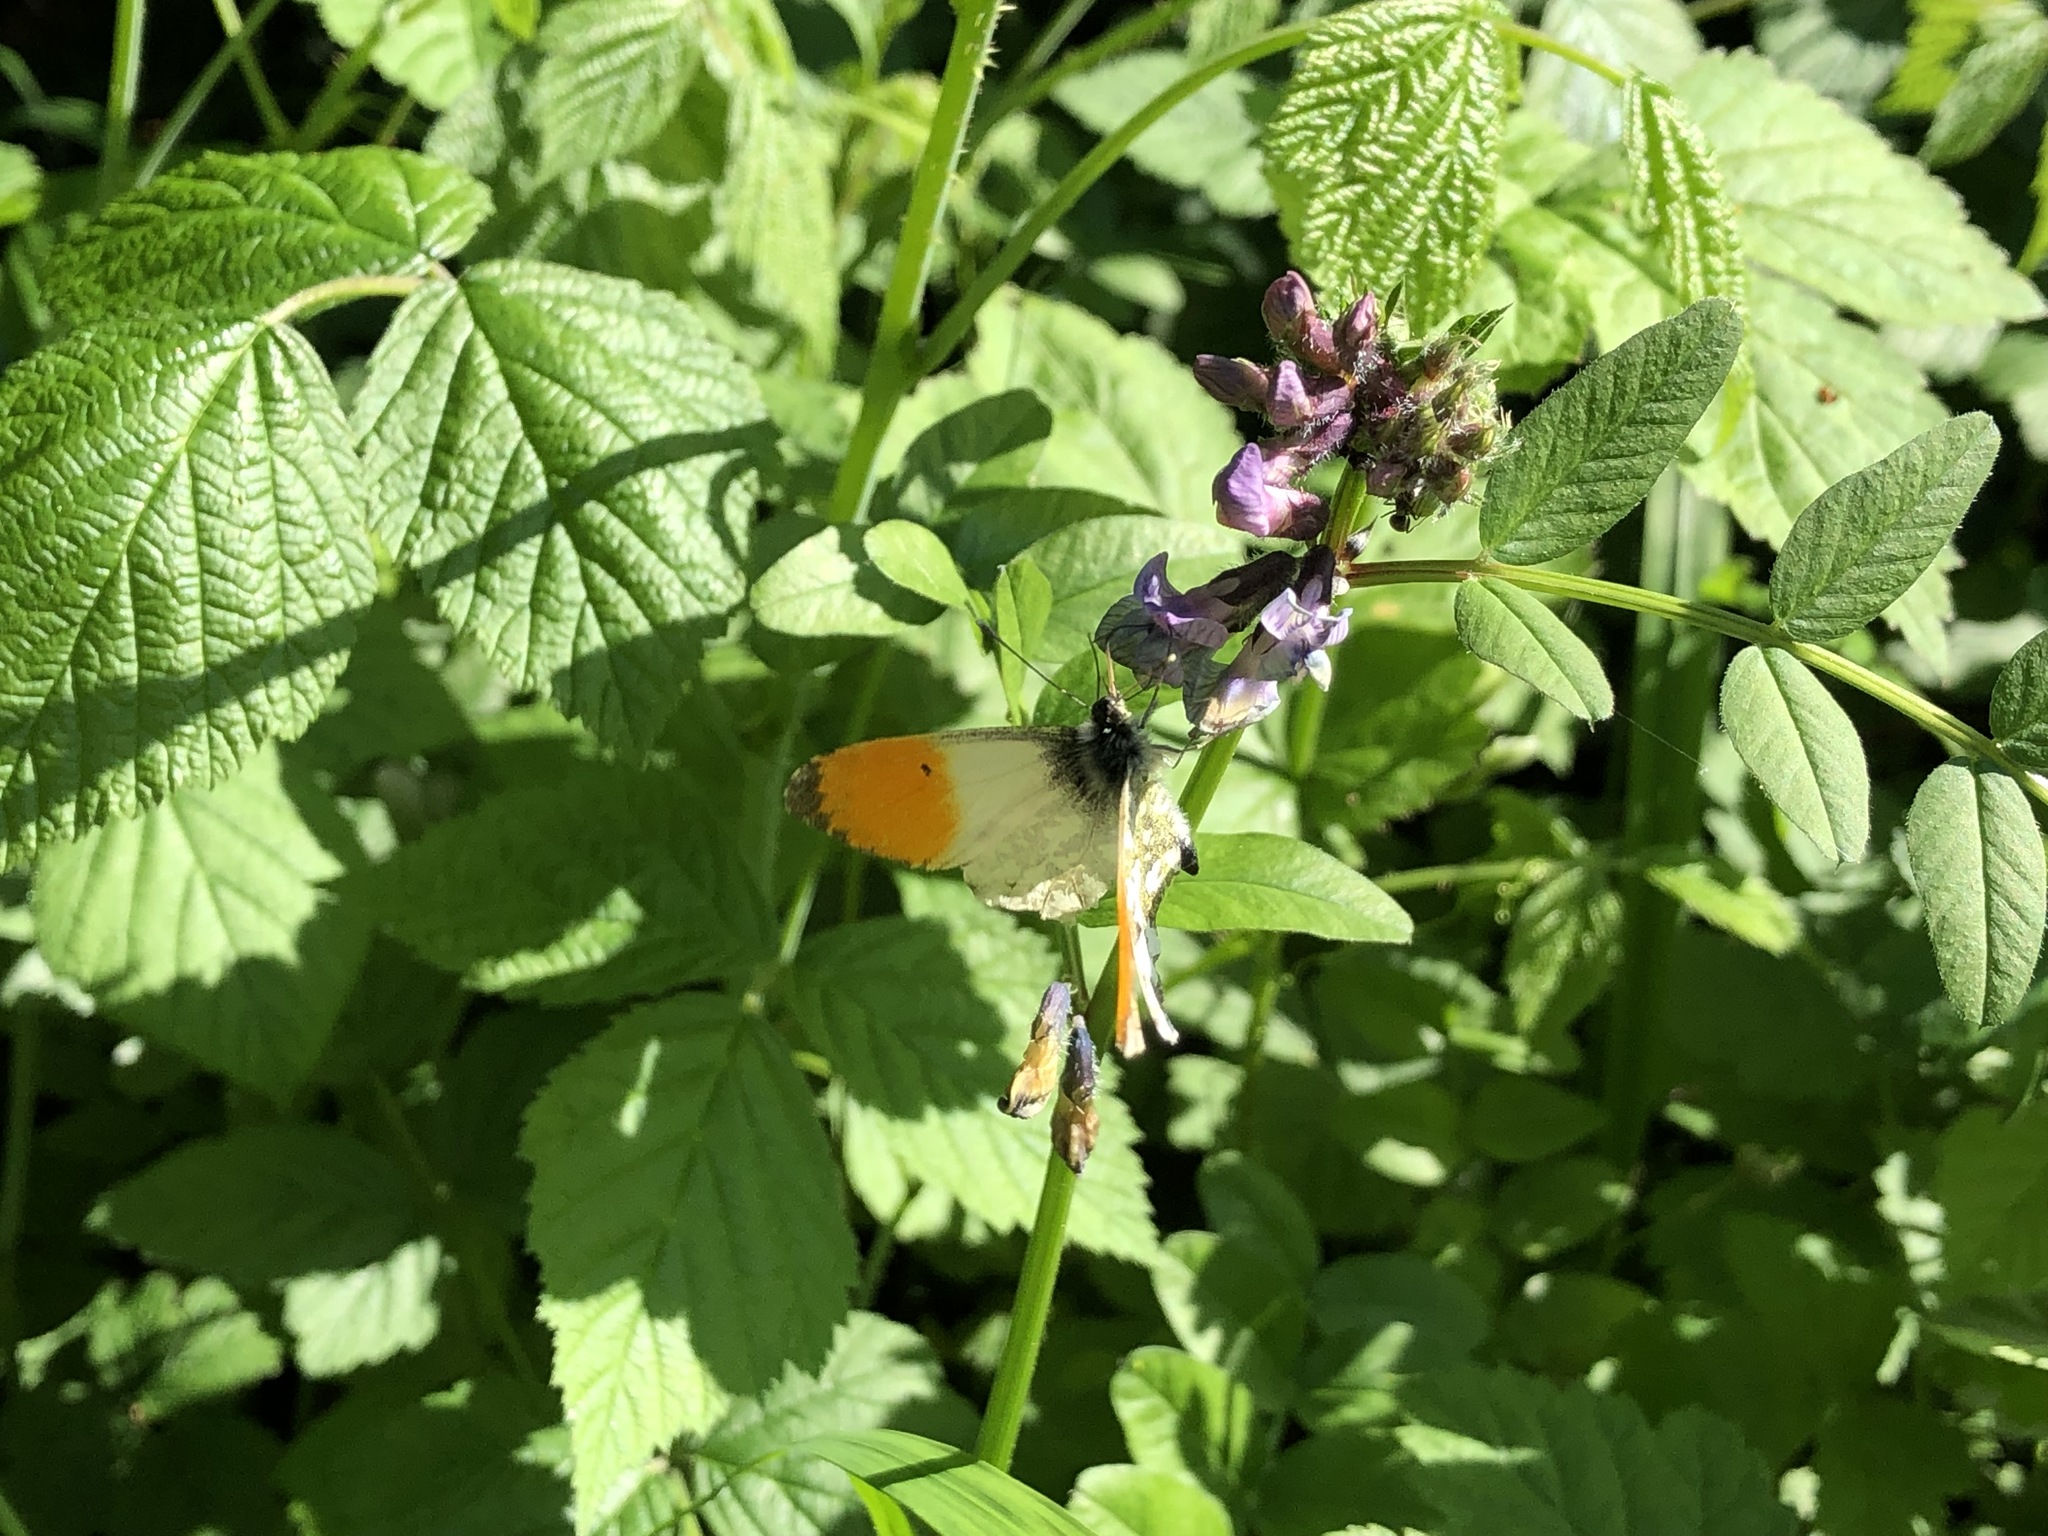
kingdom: Animalia
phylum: Arthropoda
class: Insecta
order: Lepidoptera
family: Pieridae
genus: Anthocharis
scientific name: Anthocharis cardamines
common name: Orange-tip
